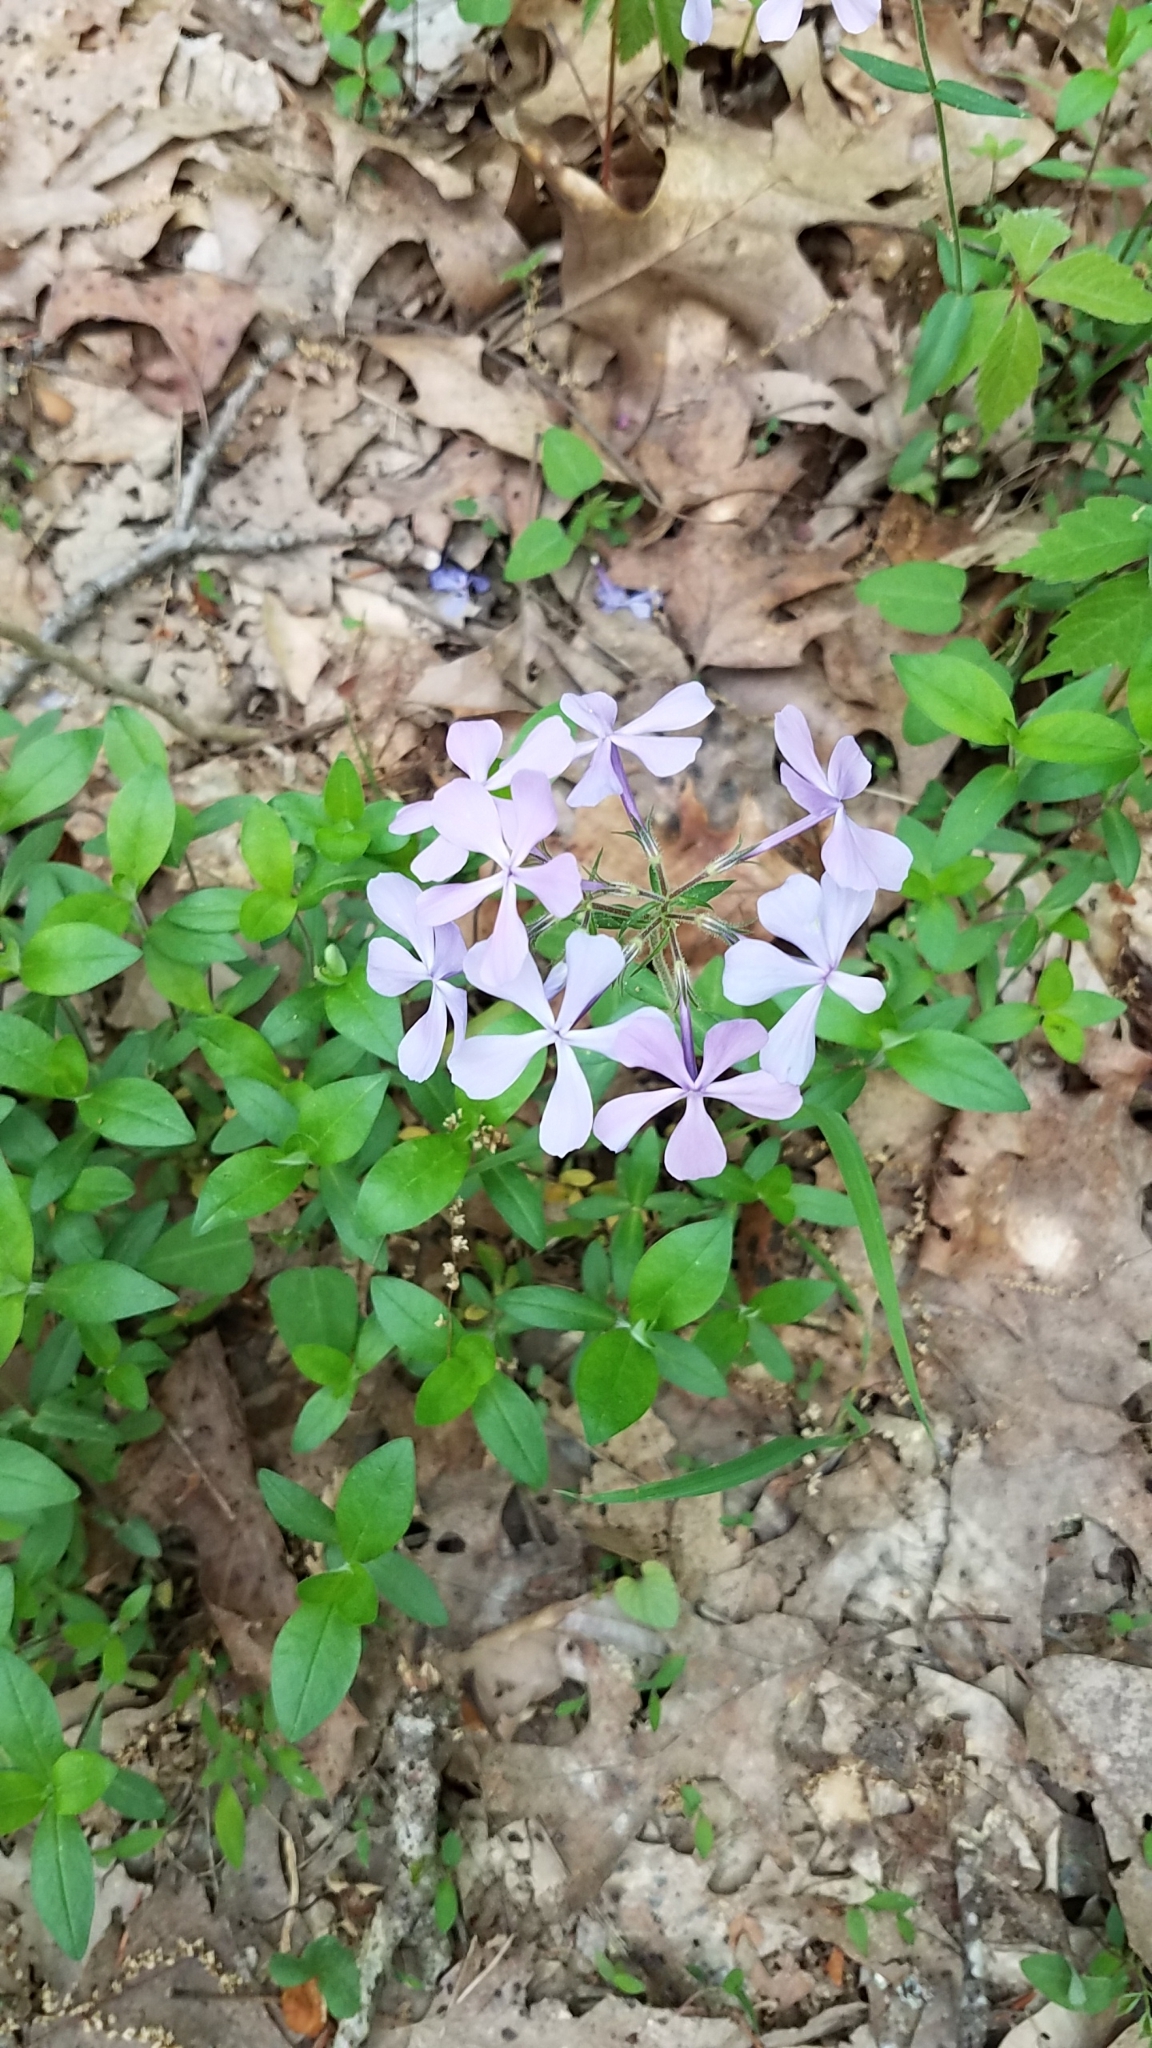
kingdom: Plantae
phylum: Tracheophyta
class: Magnoliopsida
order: Ericales
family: Polemoniaceae
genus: Phlox
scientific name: Phlox divaricata
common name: Blue phlox
